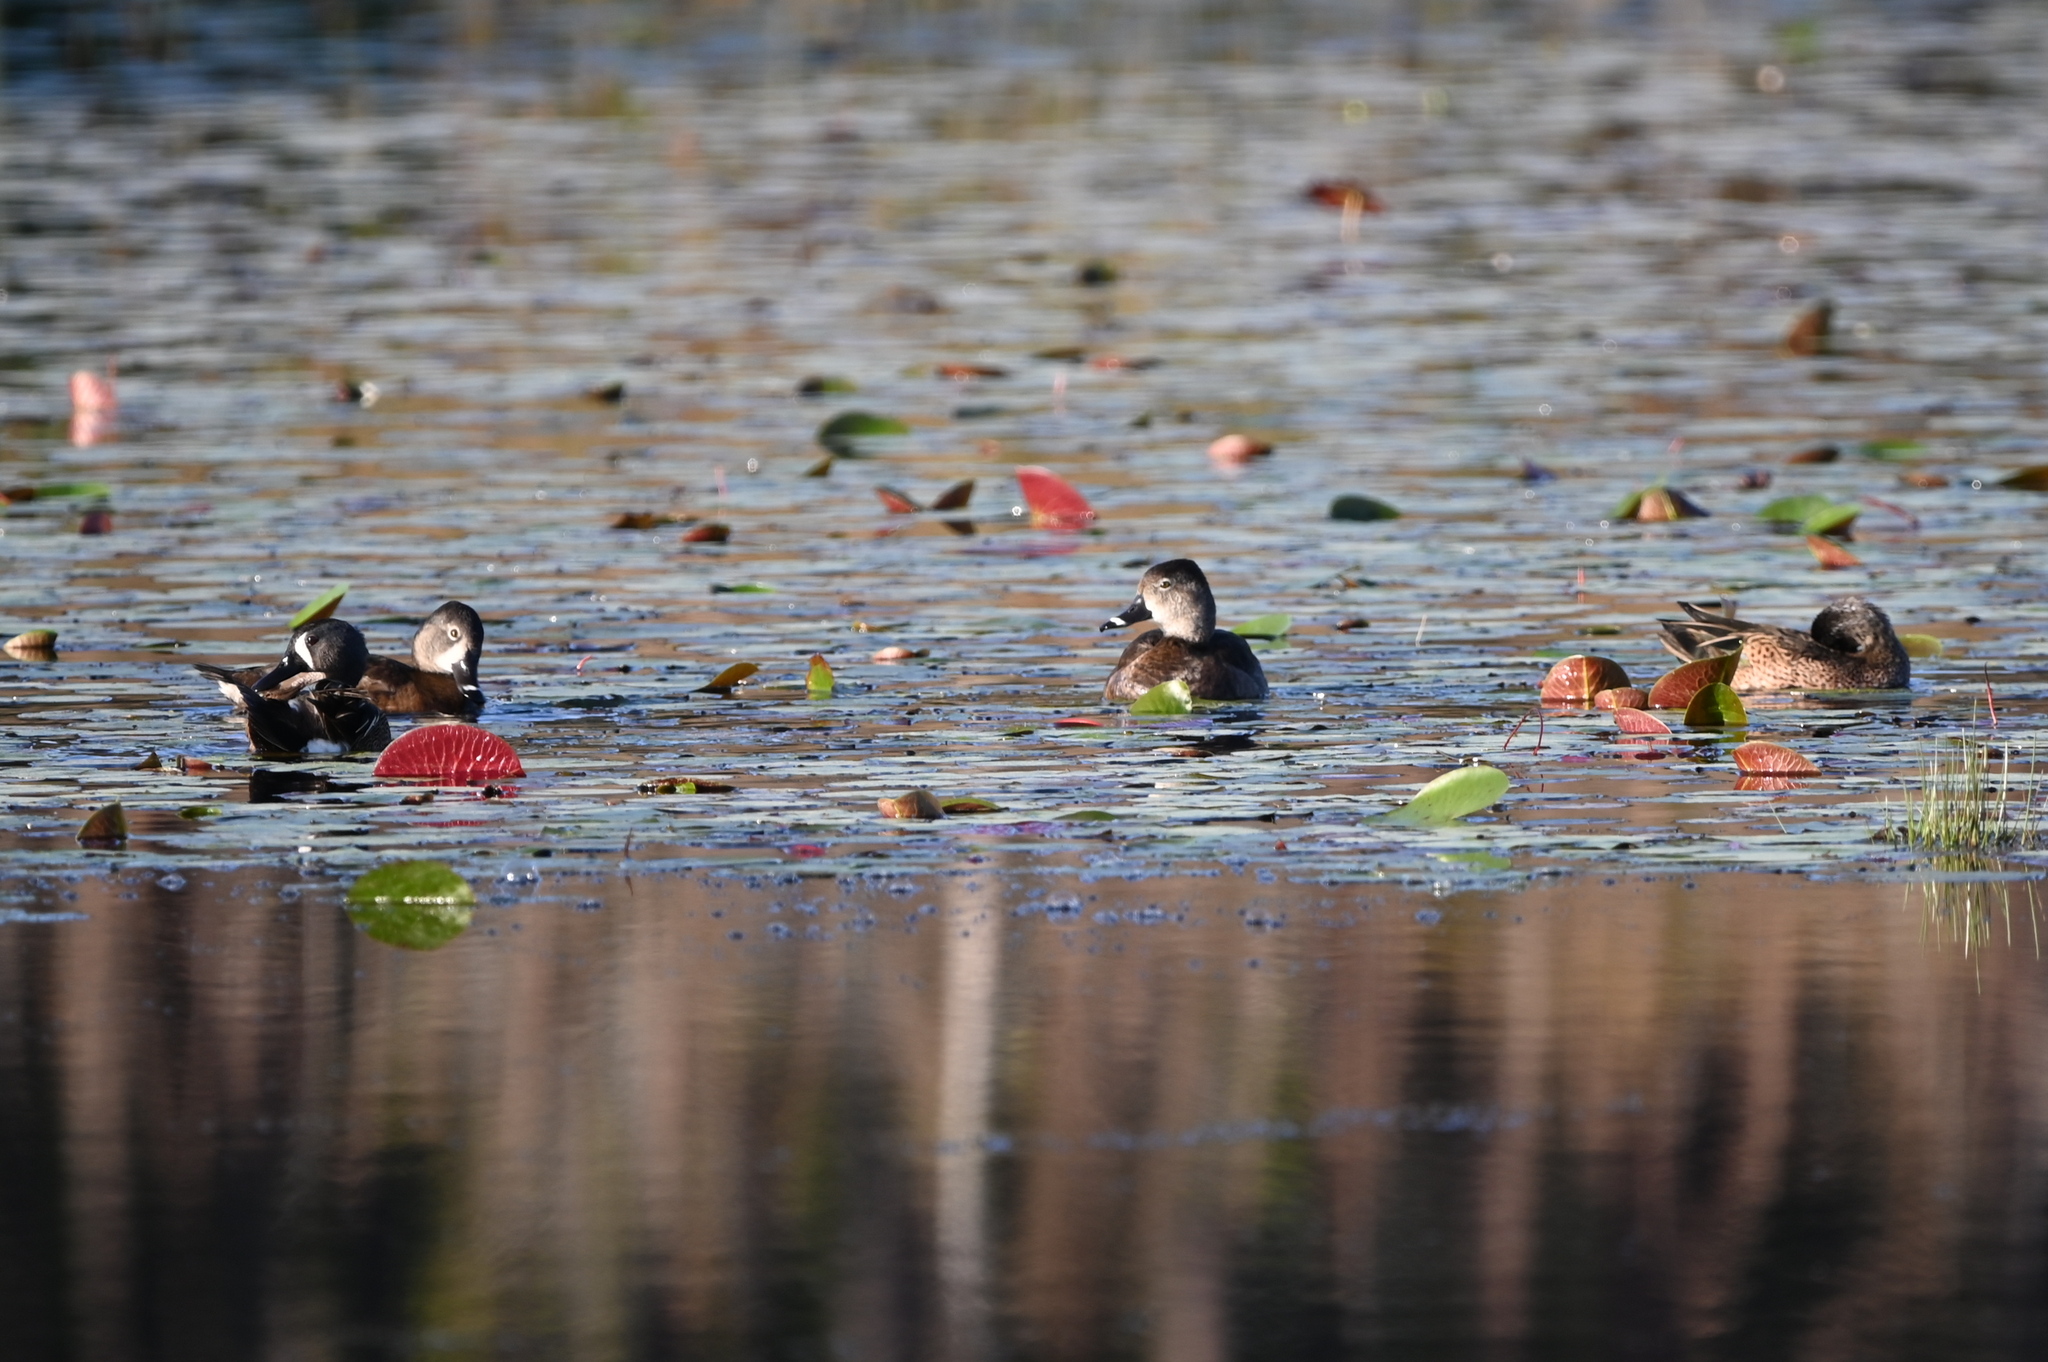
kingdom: Animalia
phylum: Chordata
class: Aves
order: Anseriformes
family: Anatidae
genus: Spatula
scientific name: Spatula discors
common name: Blue-winged teal
